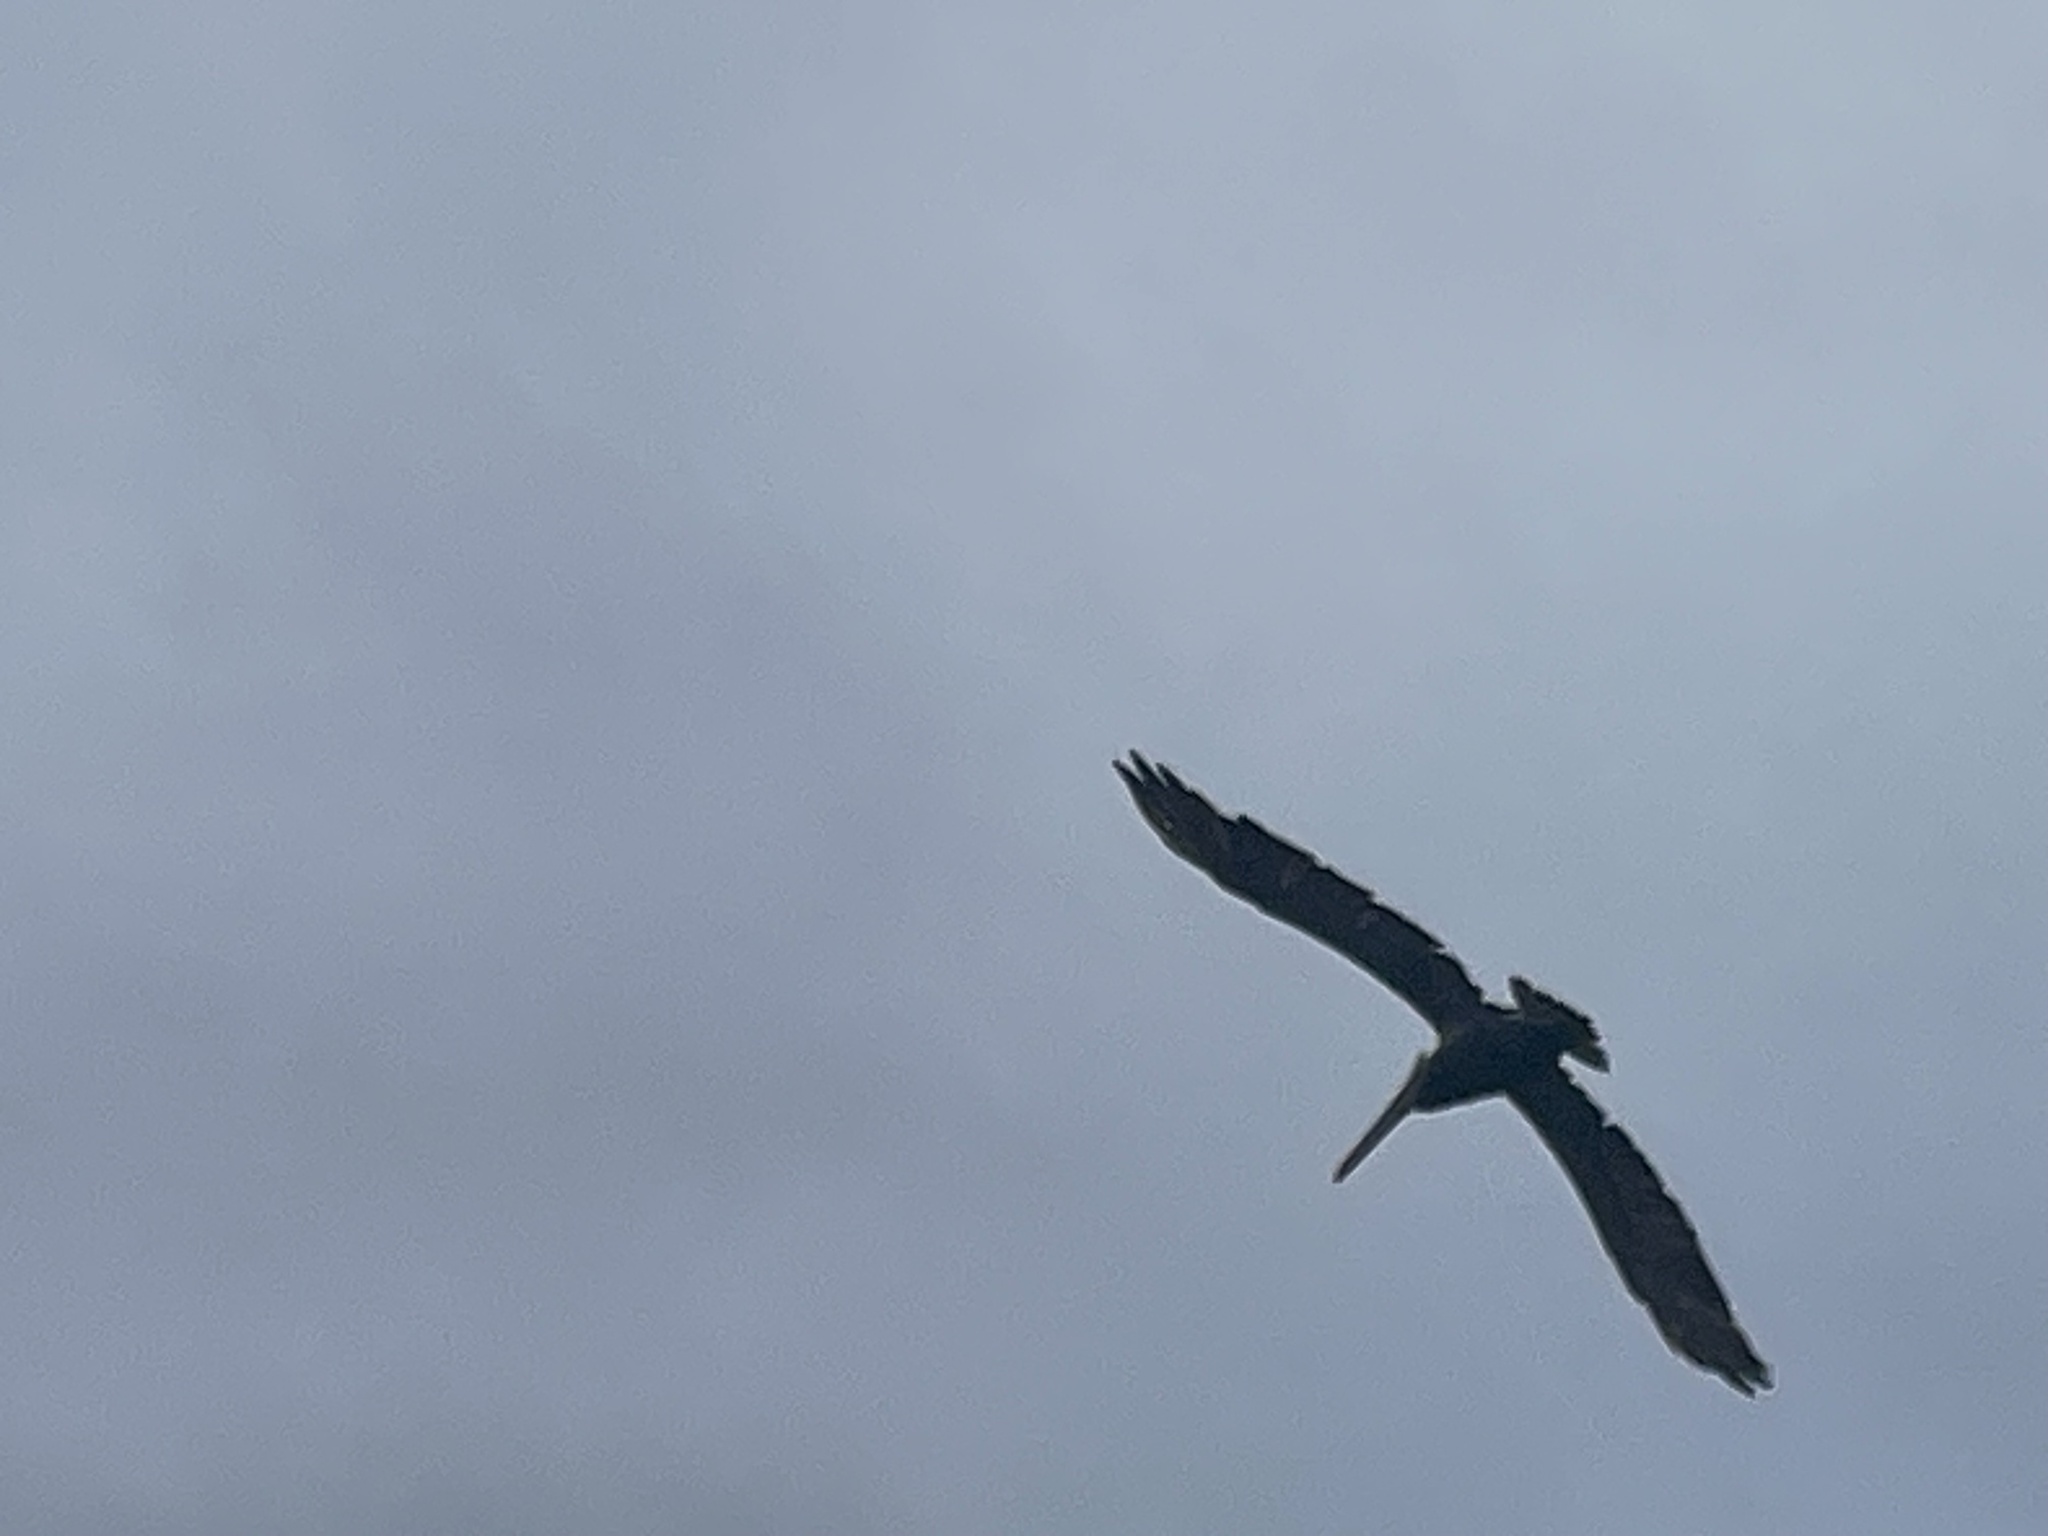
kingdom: Animalia
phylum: Chordata
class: Aves
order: Pelecaniformes
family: Pelecanidae
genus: Pelecanus
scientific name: Pelecanus occidentalis
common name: Brown pelican
